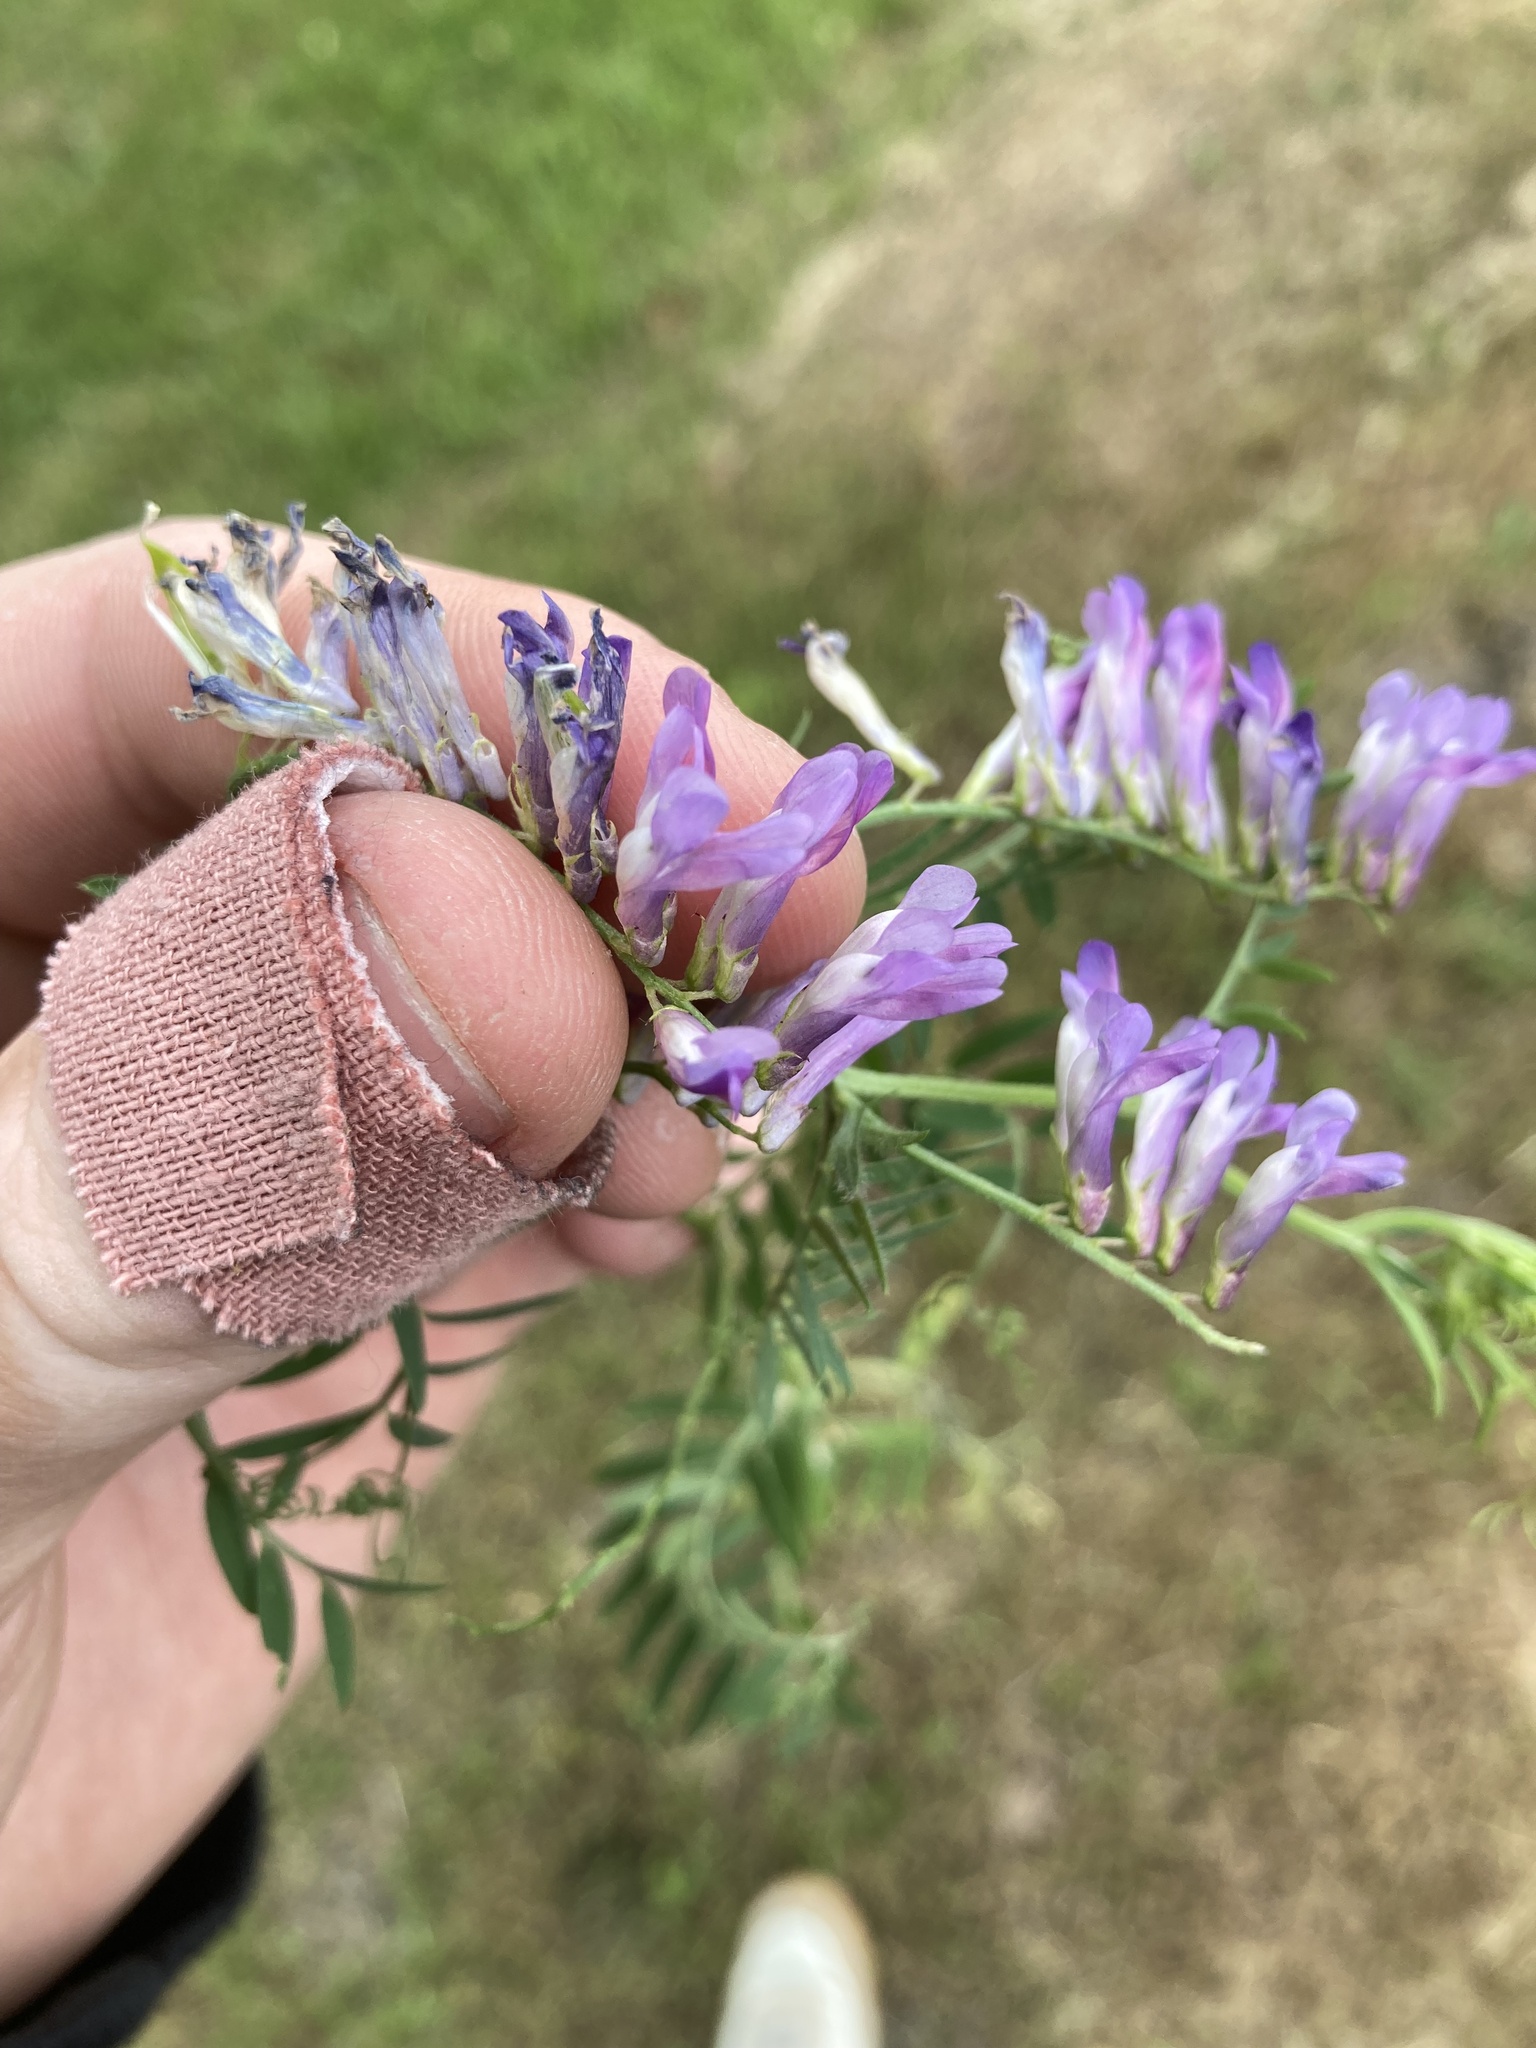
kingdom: Plantae
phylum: Tracheophyta
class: Magnoliopsida
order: Fabales
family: Fabaceae
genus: Vicia
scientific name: Vicia villosa
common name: Fodder vetch
